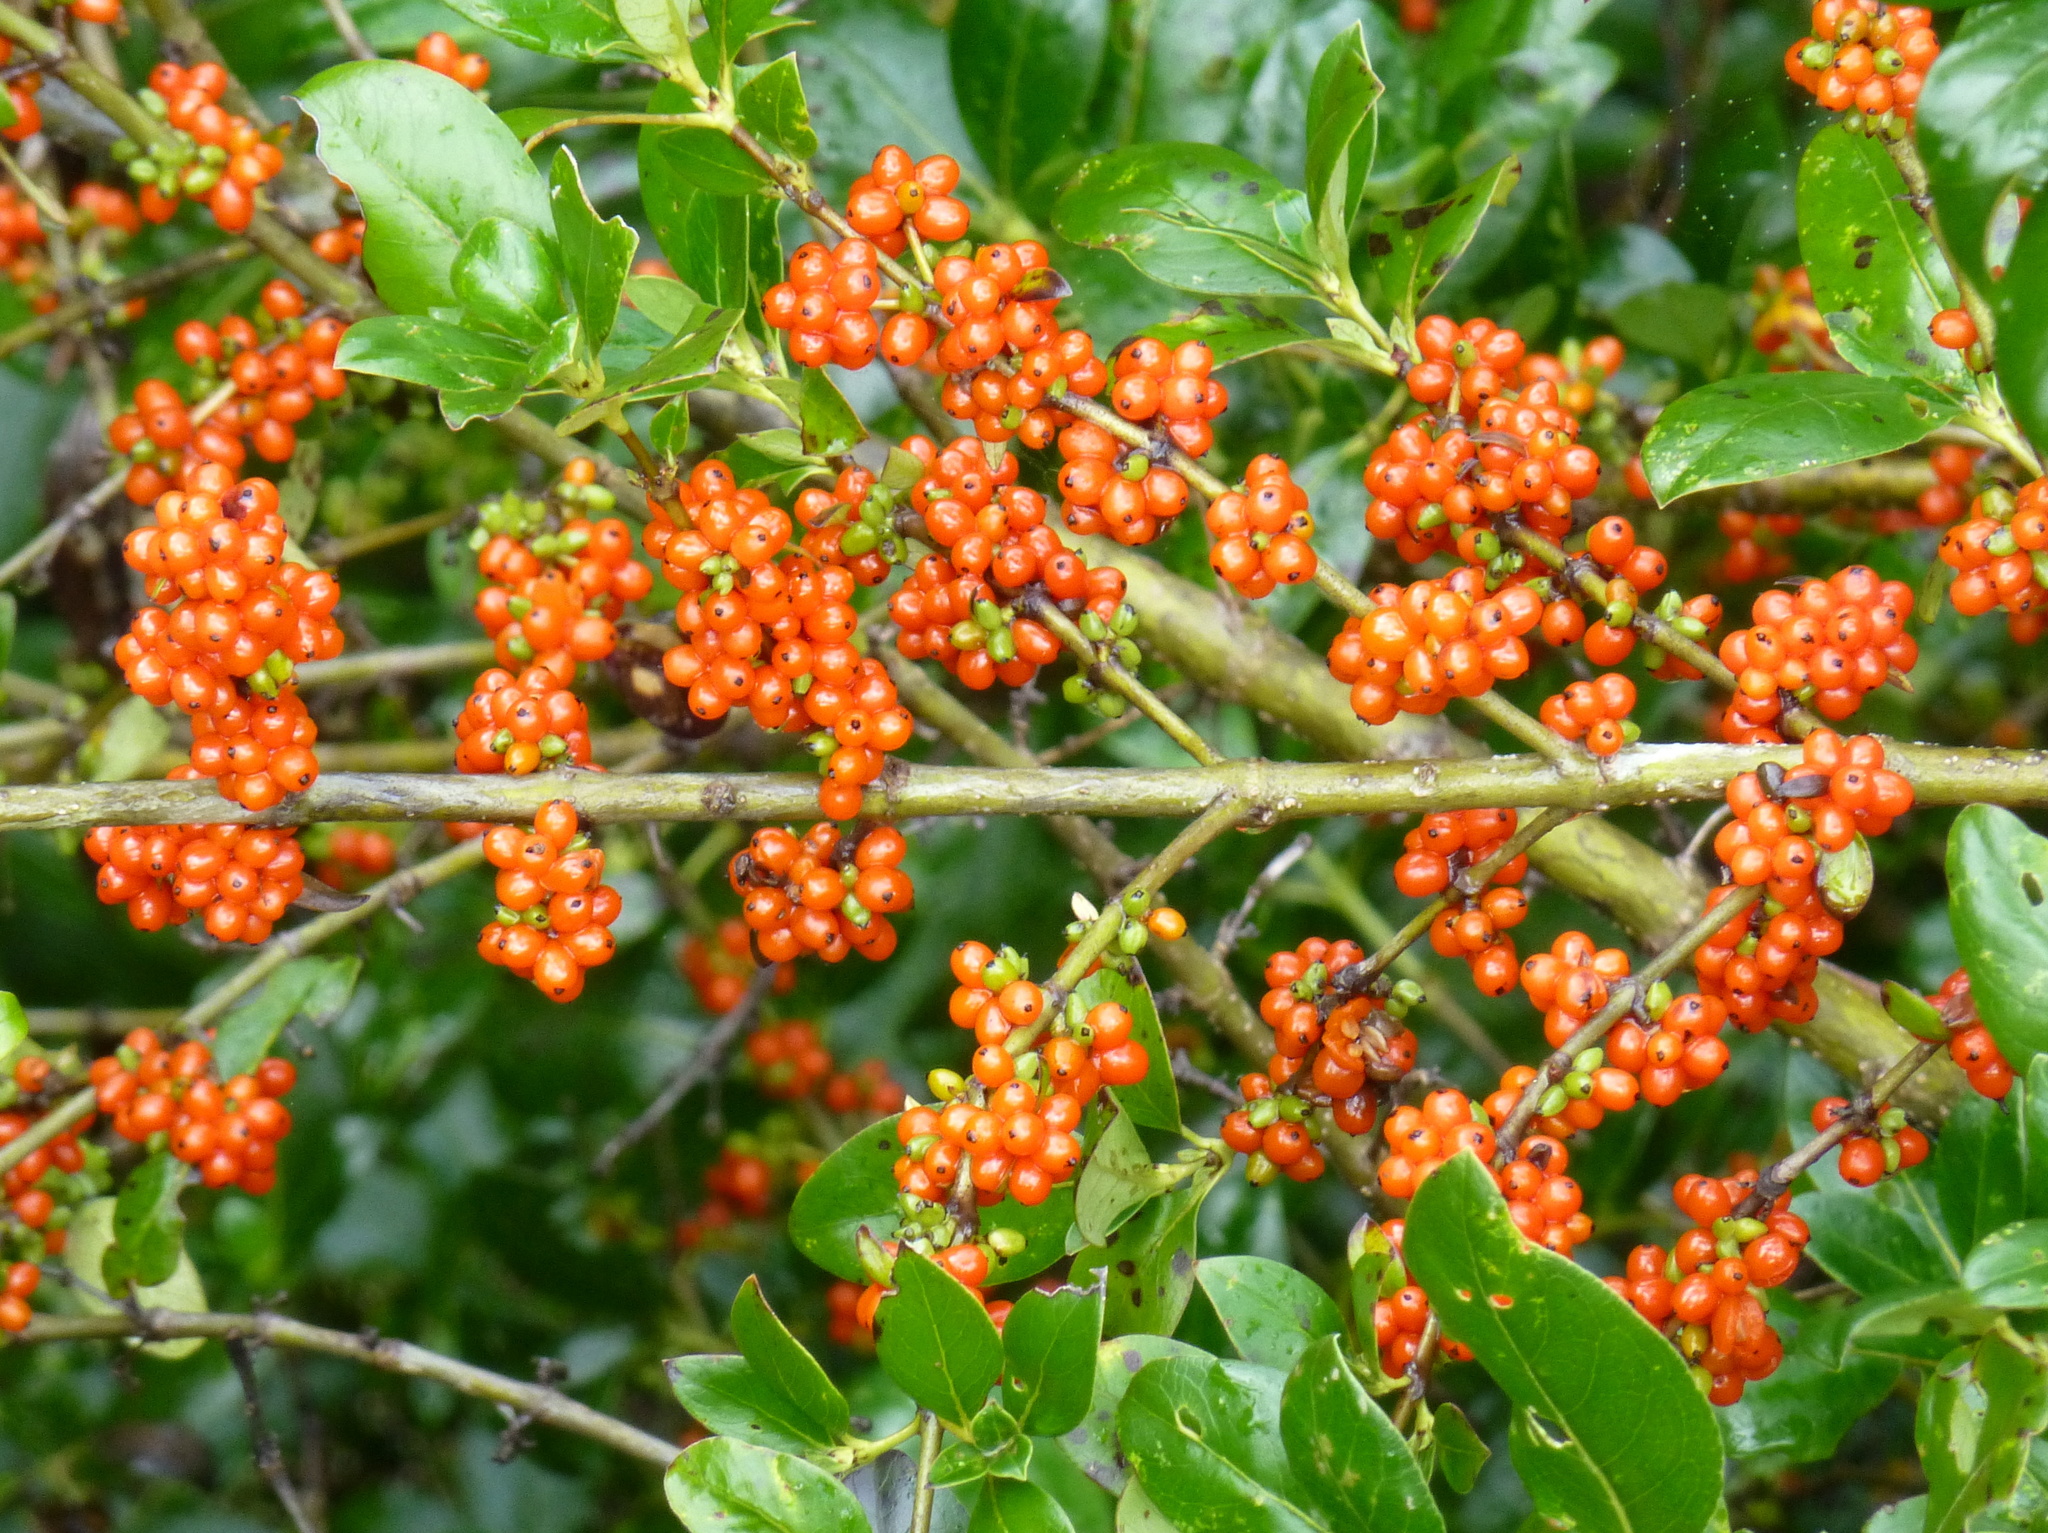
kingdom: Plantae
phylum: Tracheophyta
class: Magnoliopsida
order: Gentianales
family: Rubiaceae
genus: Coprosma
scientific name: Coprosma robusta
